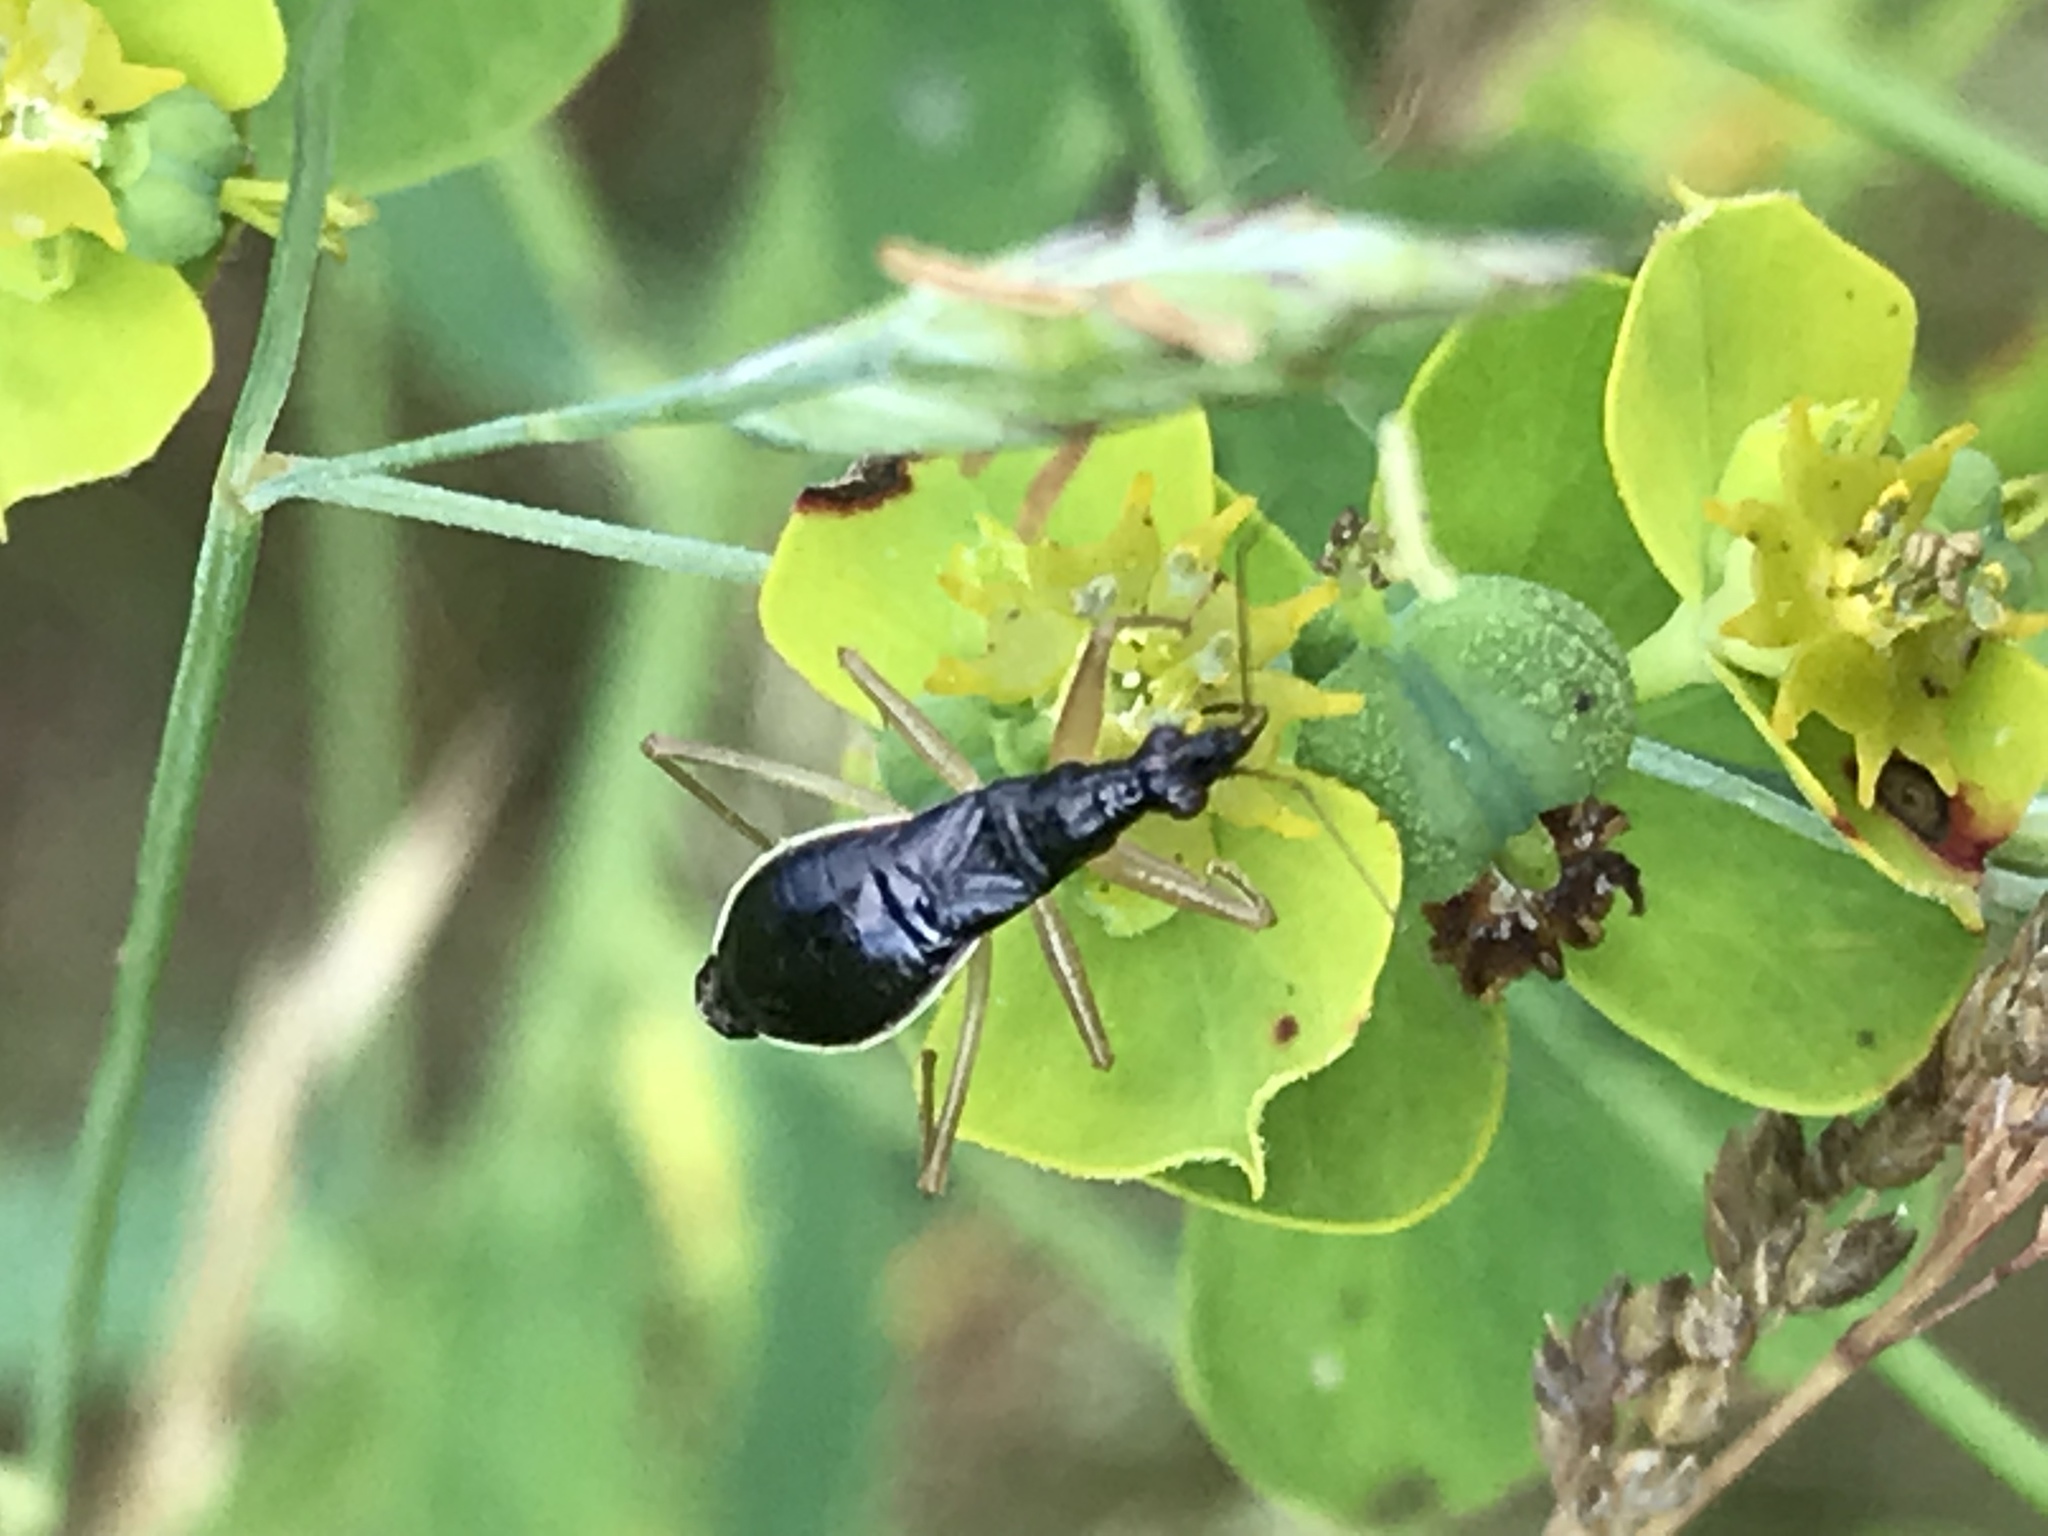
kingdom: Animalia
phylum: Arthropoda
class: Insecta
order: Hemiptera
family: Nabidae
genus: Nabis
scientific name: Nabis
